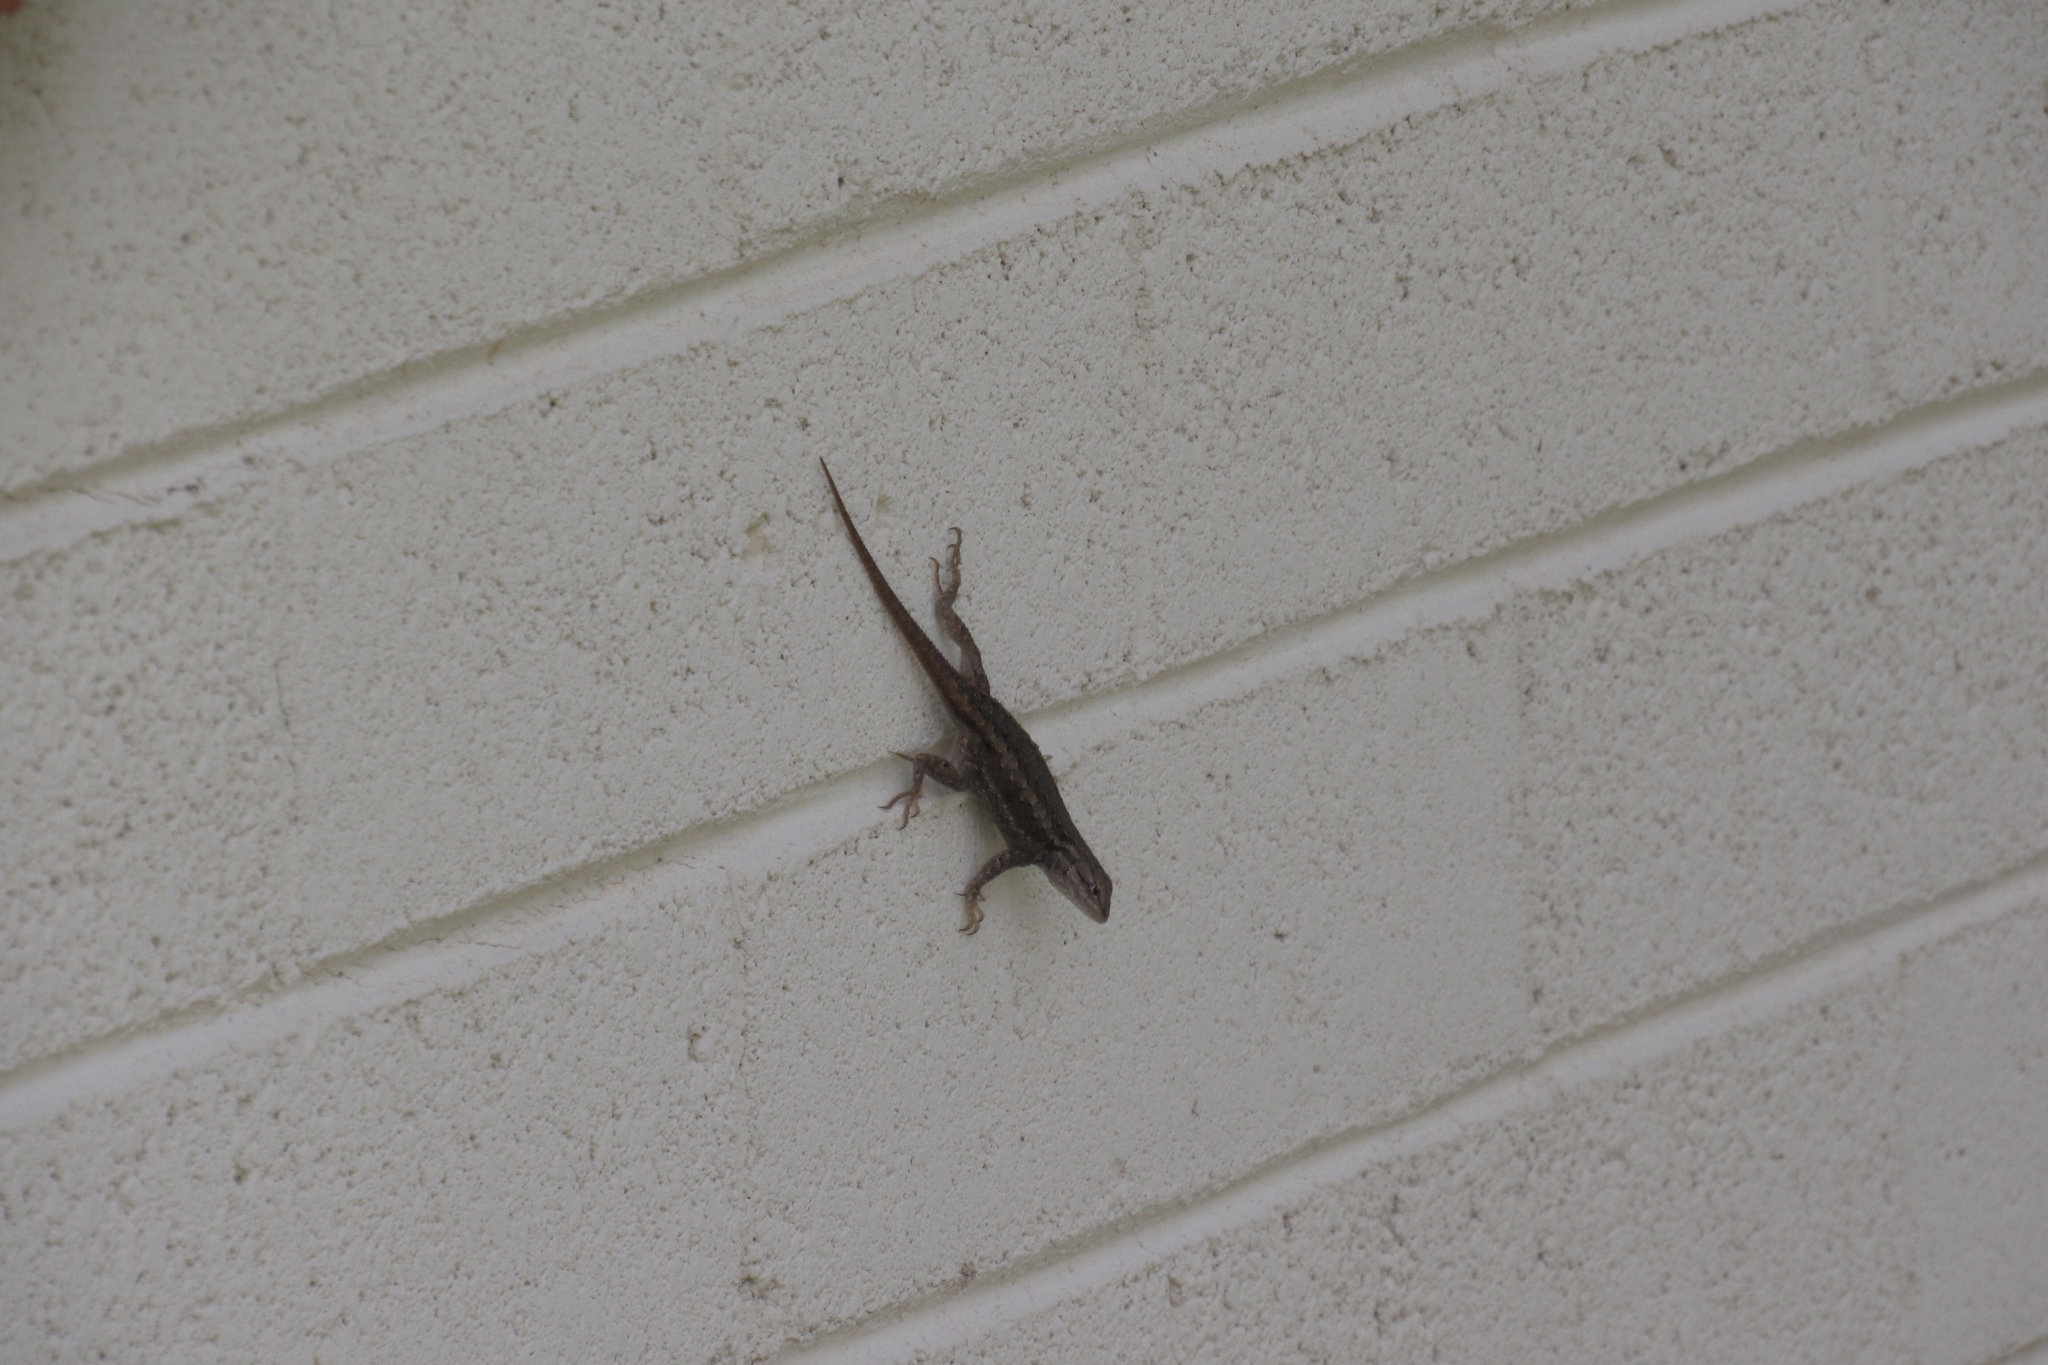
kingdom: Animalia
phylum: Chordata
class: Squamata
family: Phrynosomatidae
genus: Sceloporus
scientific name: Sceloporus cowlesi
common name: White sands prairie lizard
